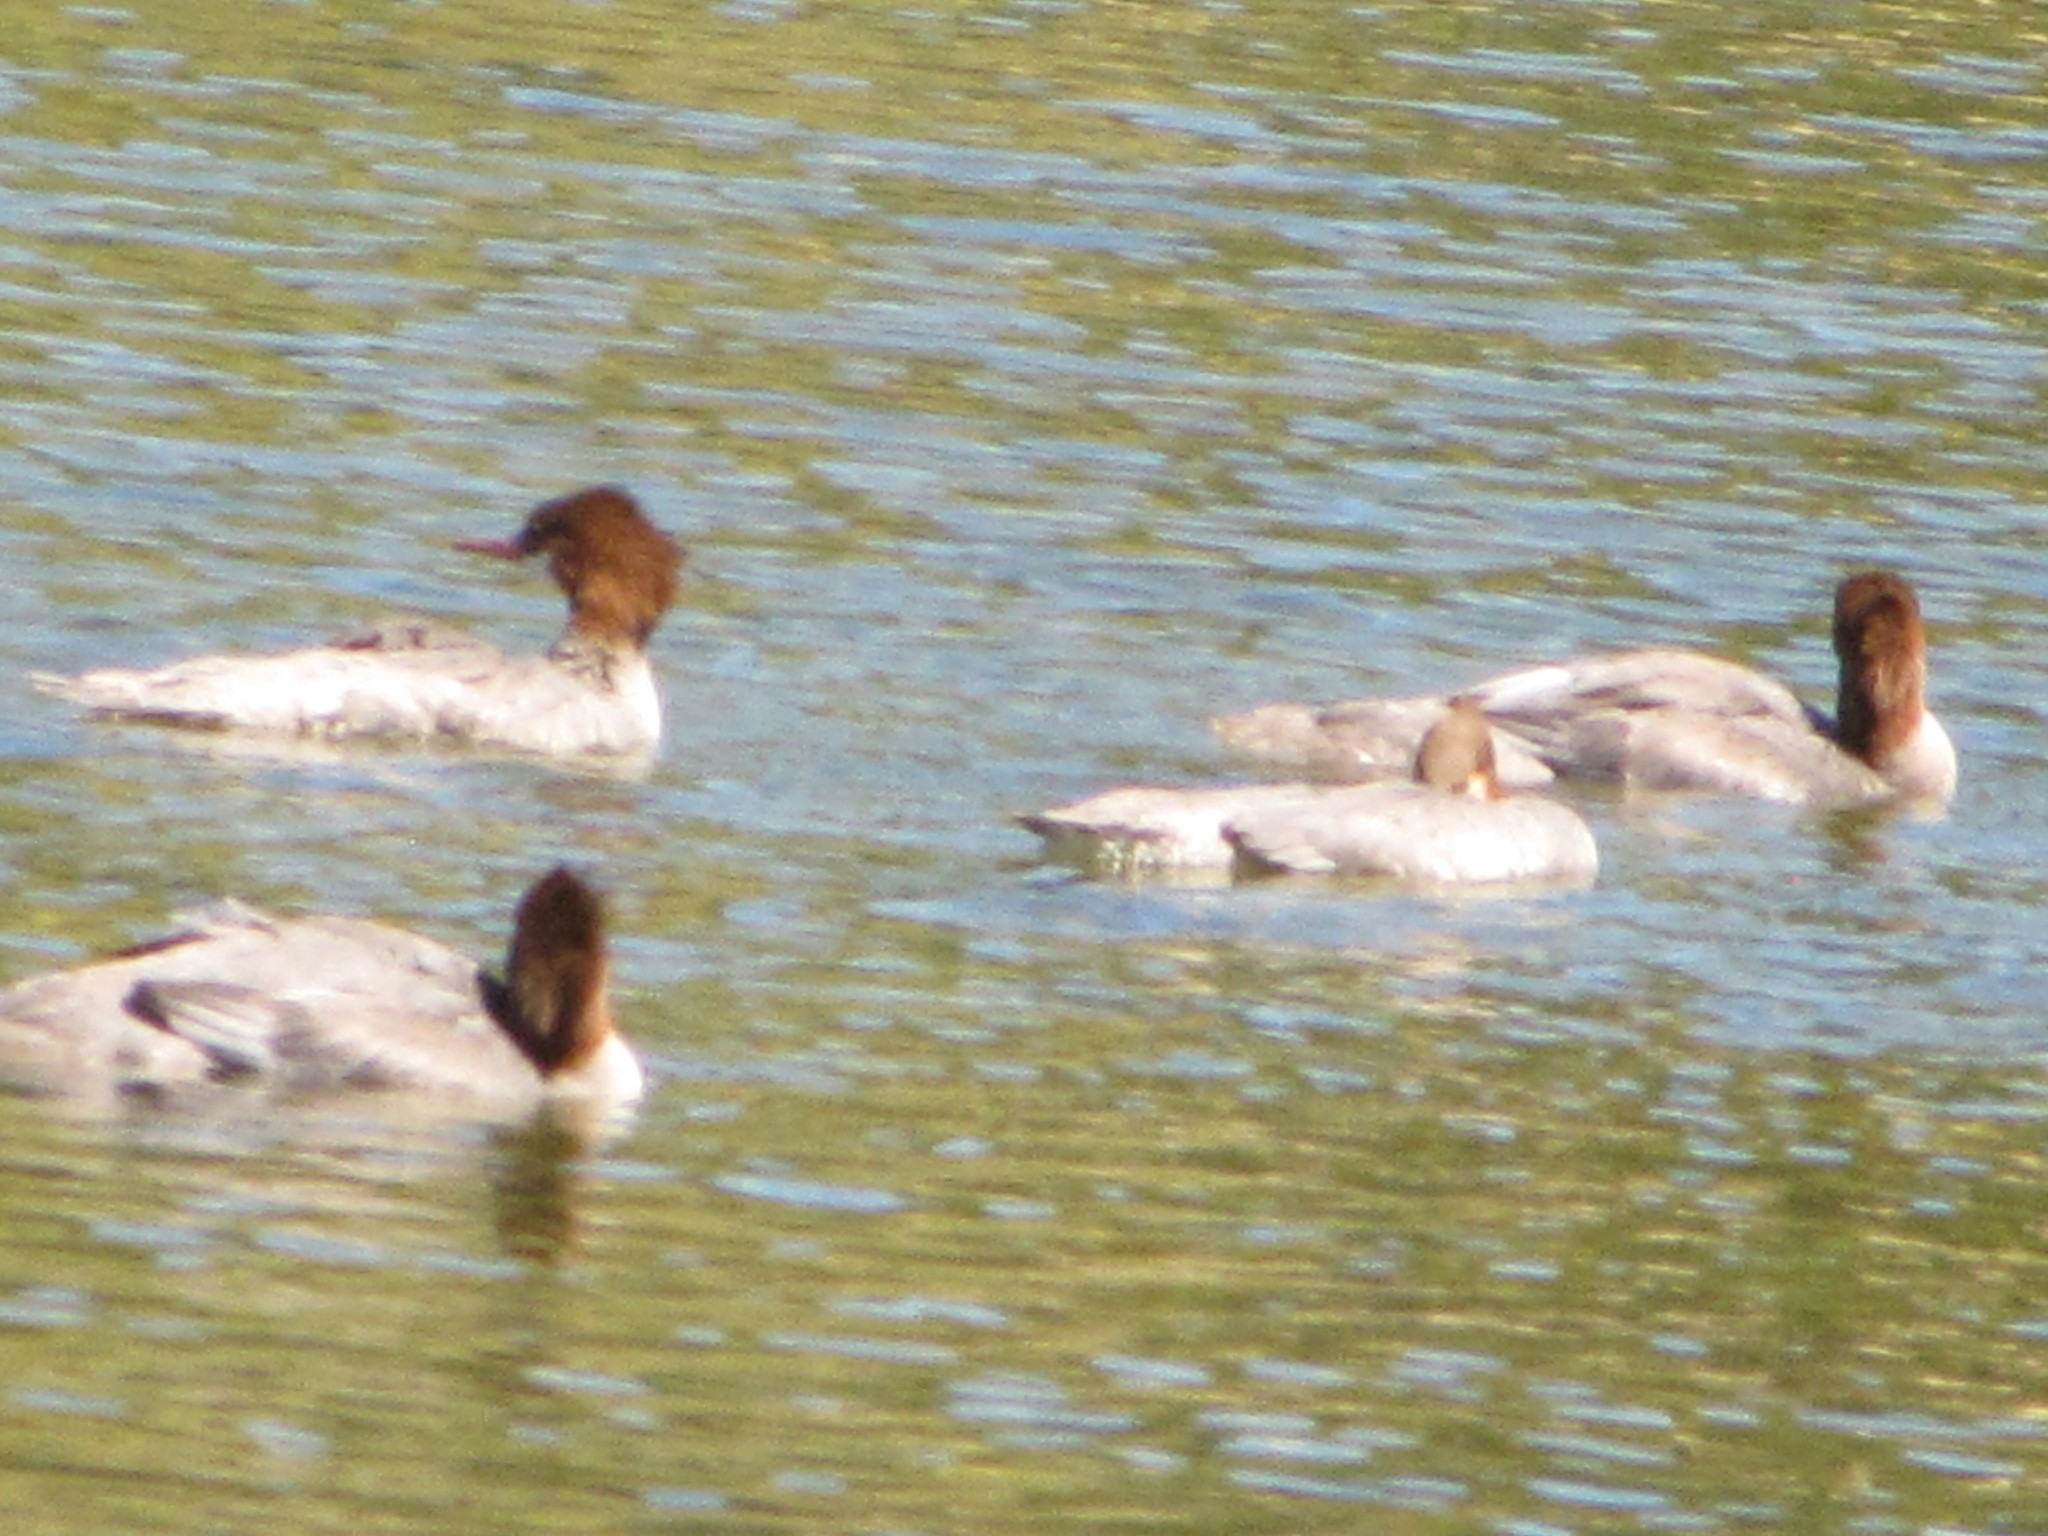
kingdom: Animalia
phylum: Chordata
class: Aves
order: Anseriformes
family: Anatidae
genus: Mergus
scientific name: Mergus merganser
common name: Common merganser
